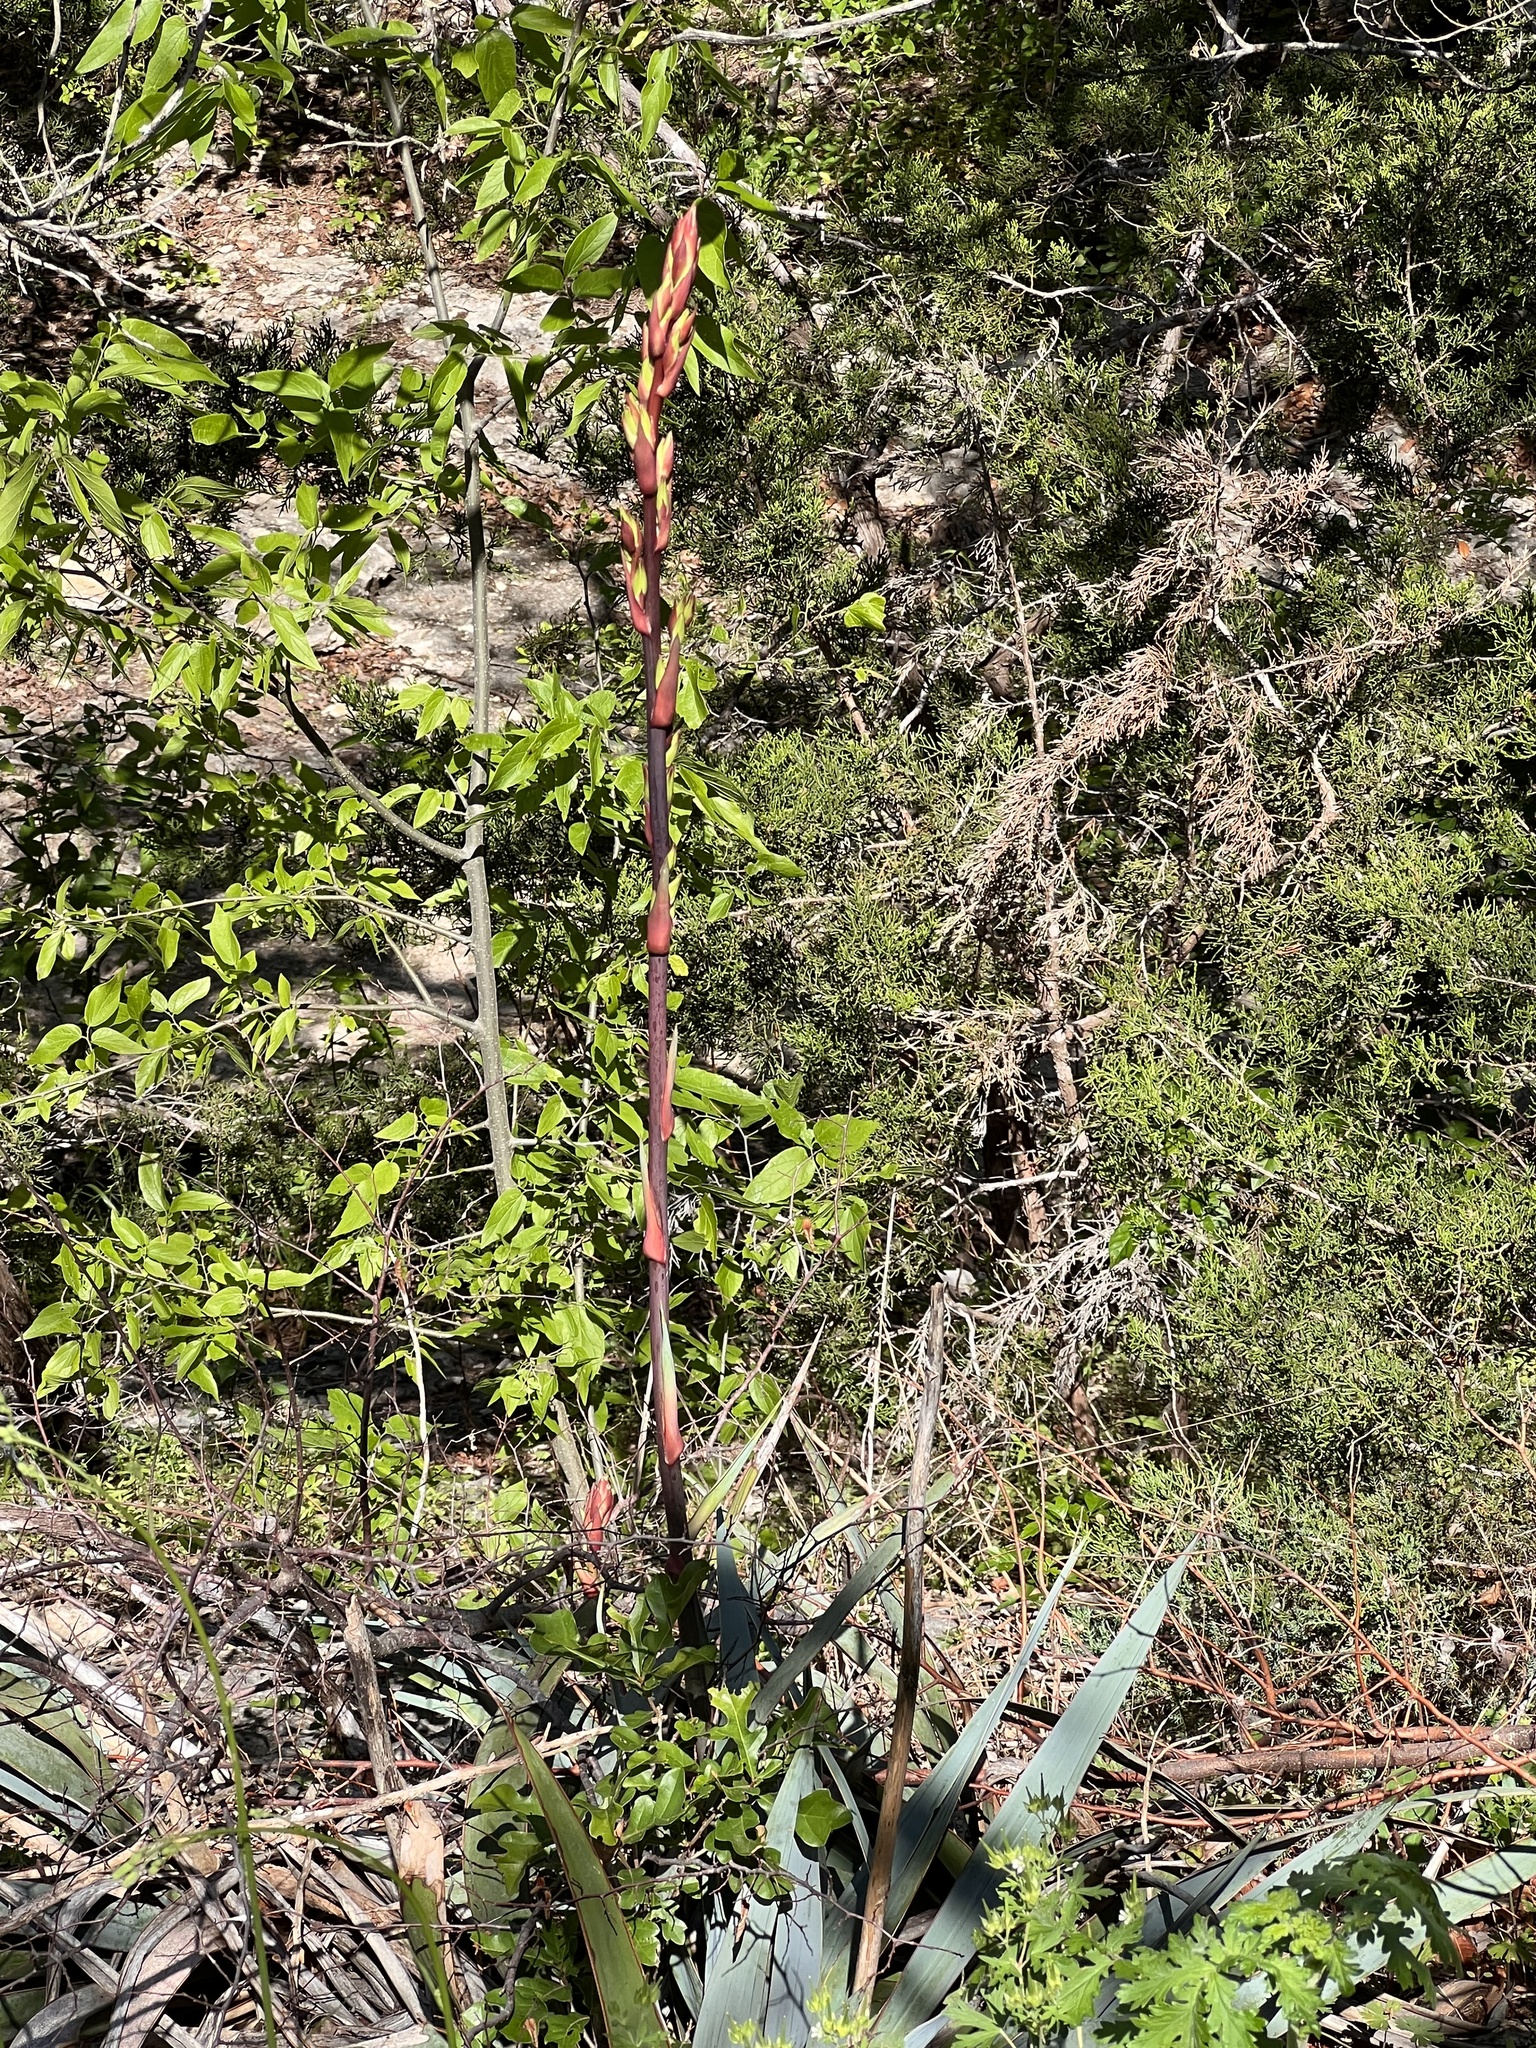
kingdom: Plantae
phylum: Tracheophyta
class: Liliopsida
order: Asparagales
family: Asparagaceae
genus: Yucca
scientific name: Yucca pallida
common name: Pale leaf yucca
